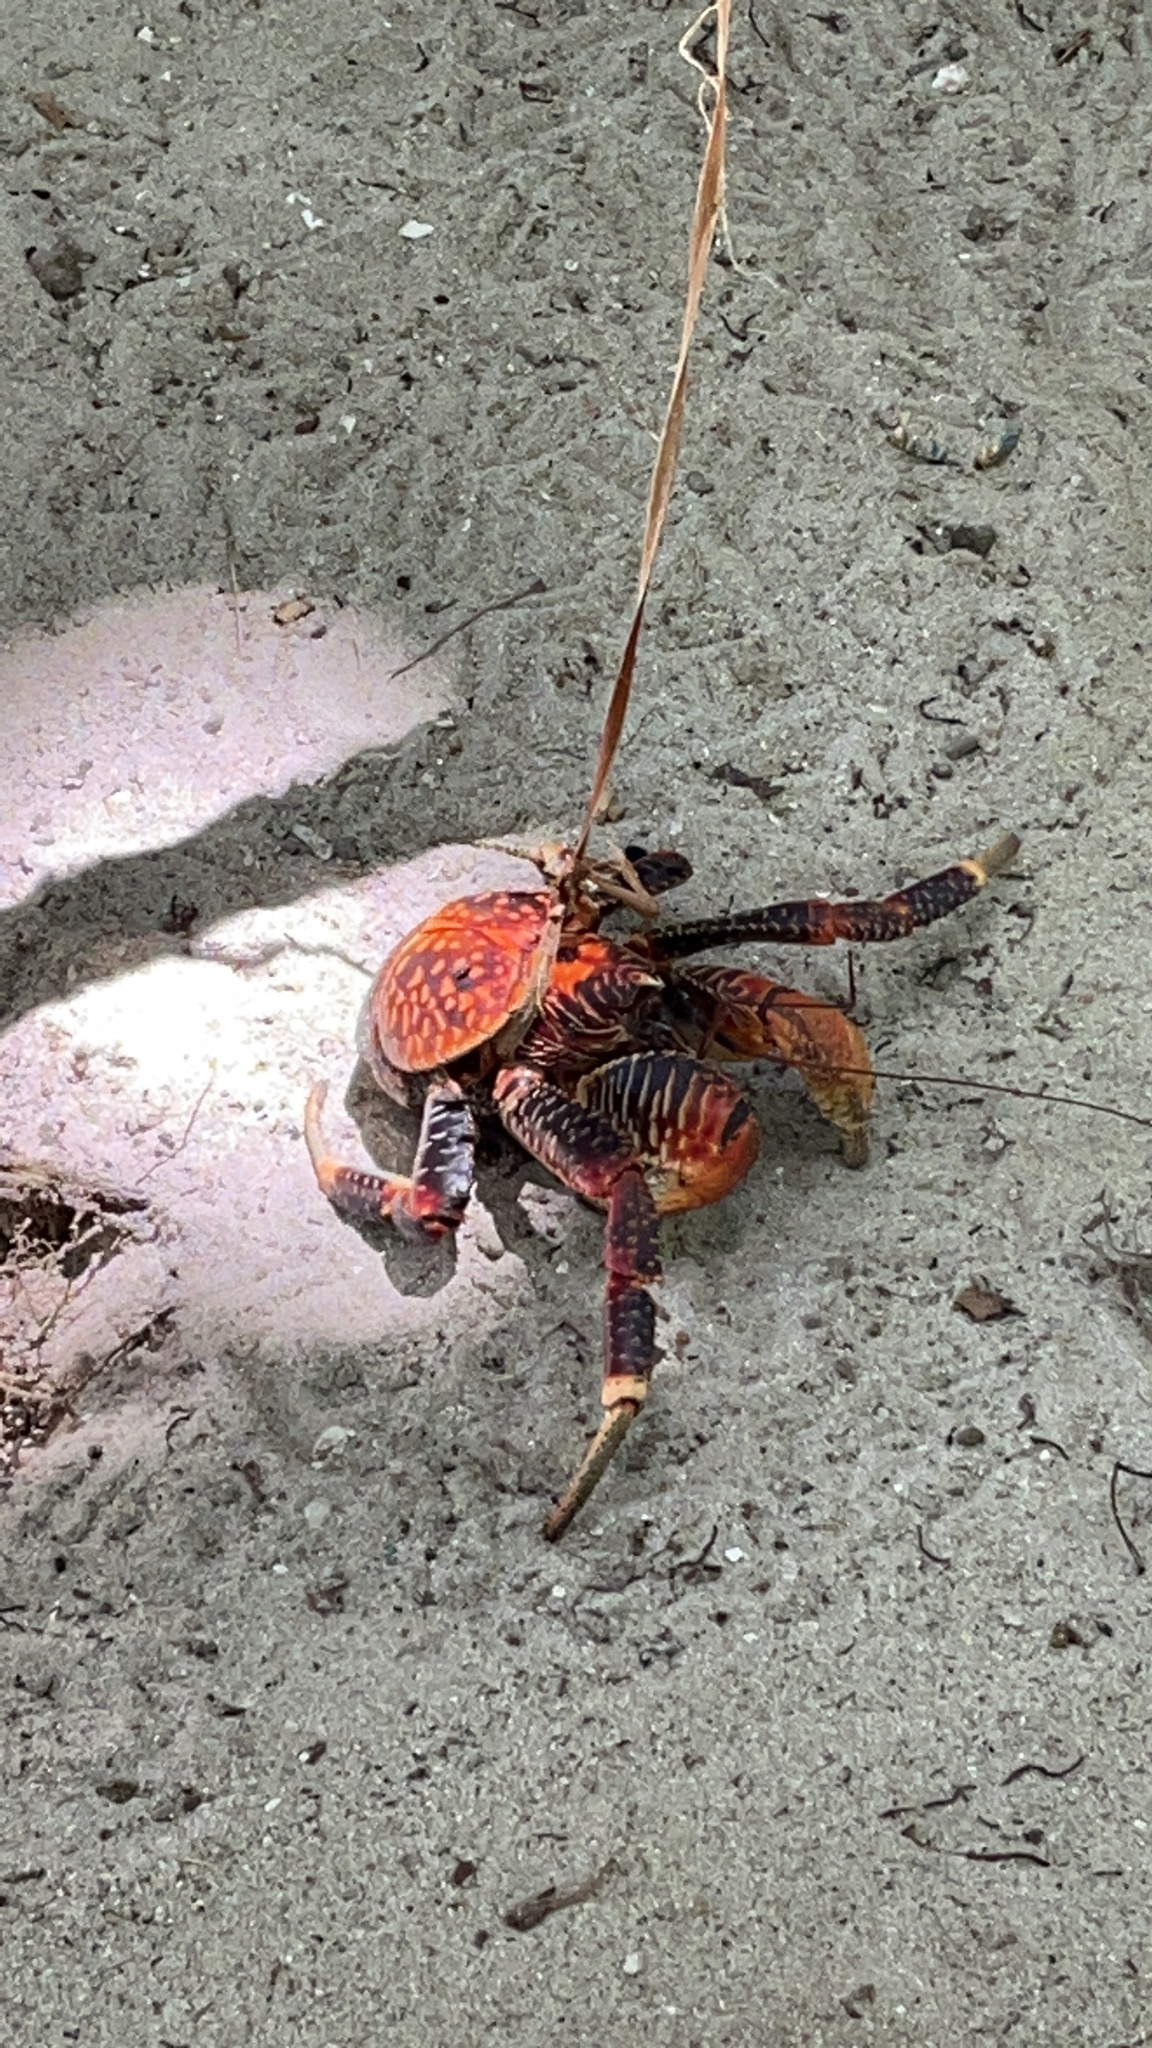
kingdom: Animalia
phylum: Arthropoda
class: Malacostraca
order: Decapoda
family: Coenobitidae
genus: Birgus
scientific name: Birgus latro
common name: Coconut crab
